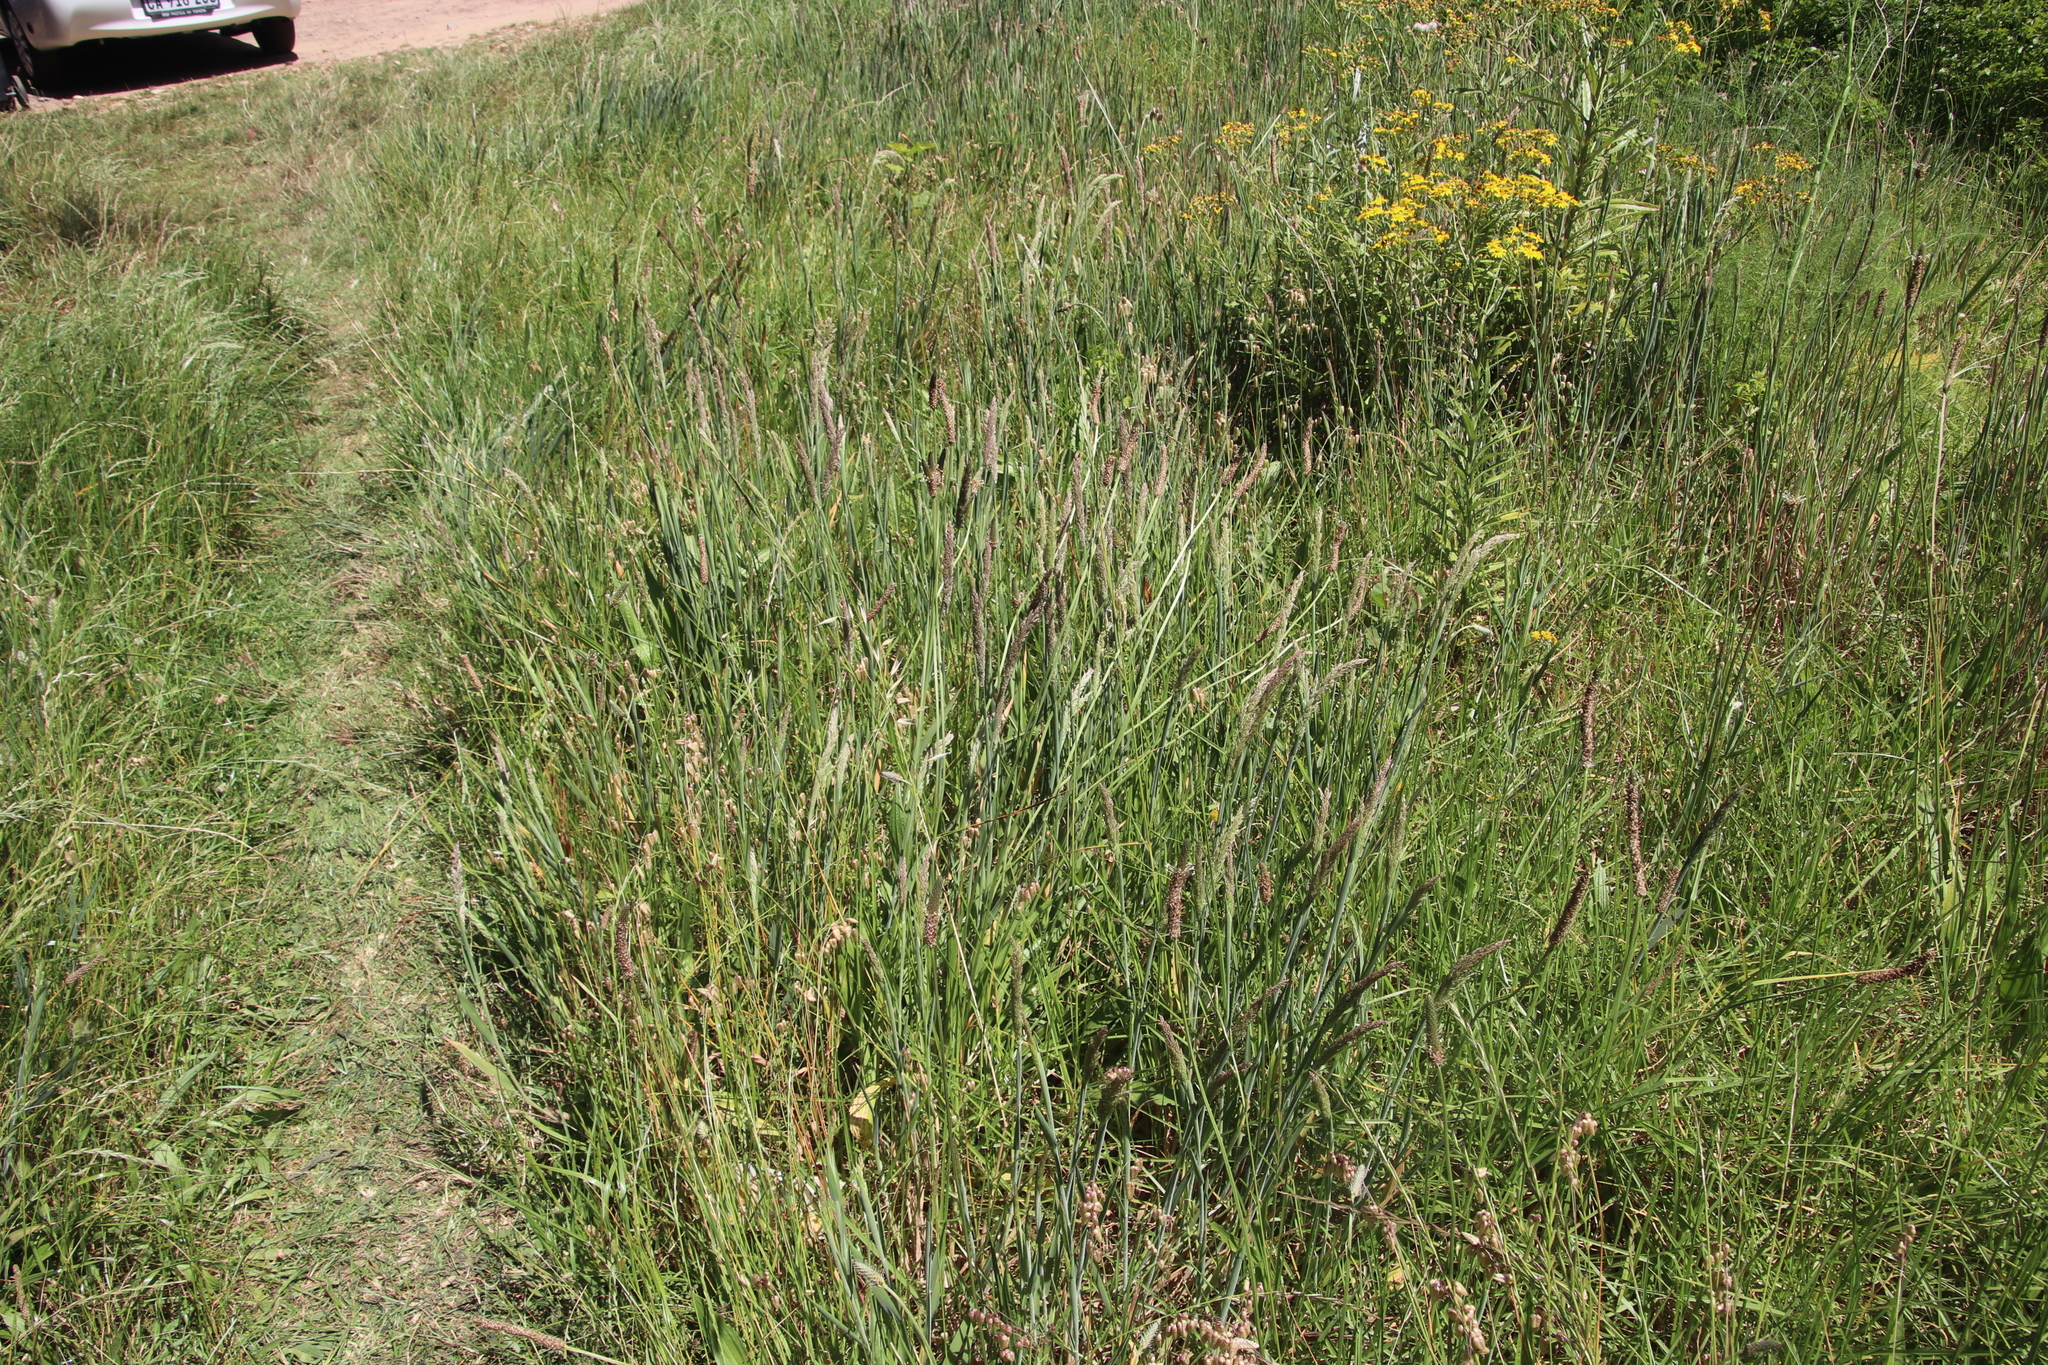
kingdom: Plantae
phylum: Tracheophyta
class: Liliopsida
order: Poales
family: Poaceae
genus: Briza
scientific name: Briza maxima
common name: Big quakinggrass
